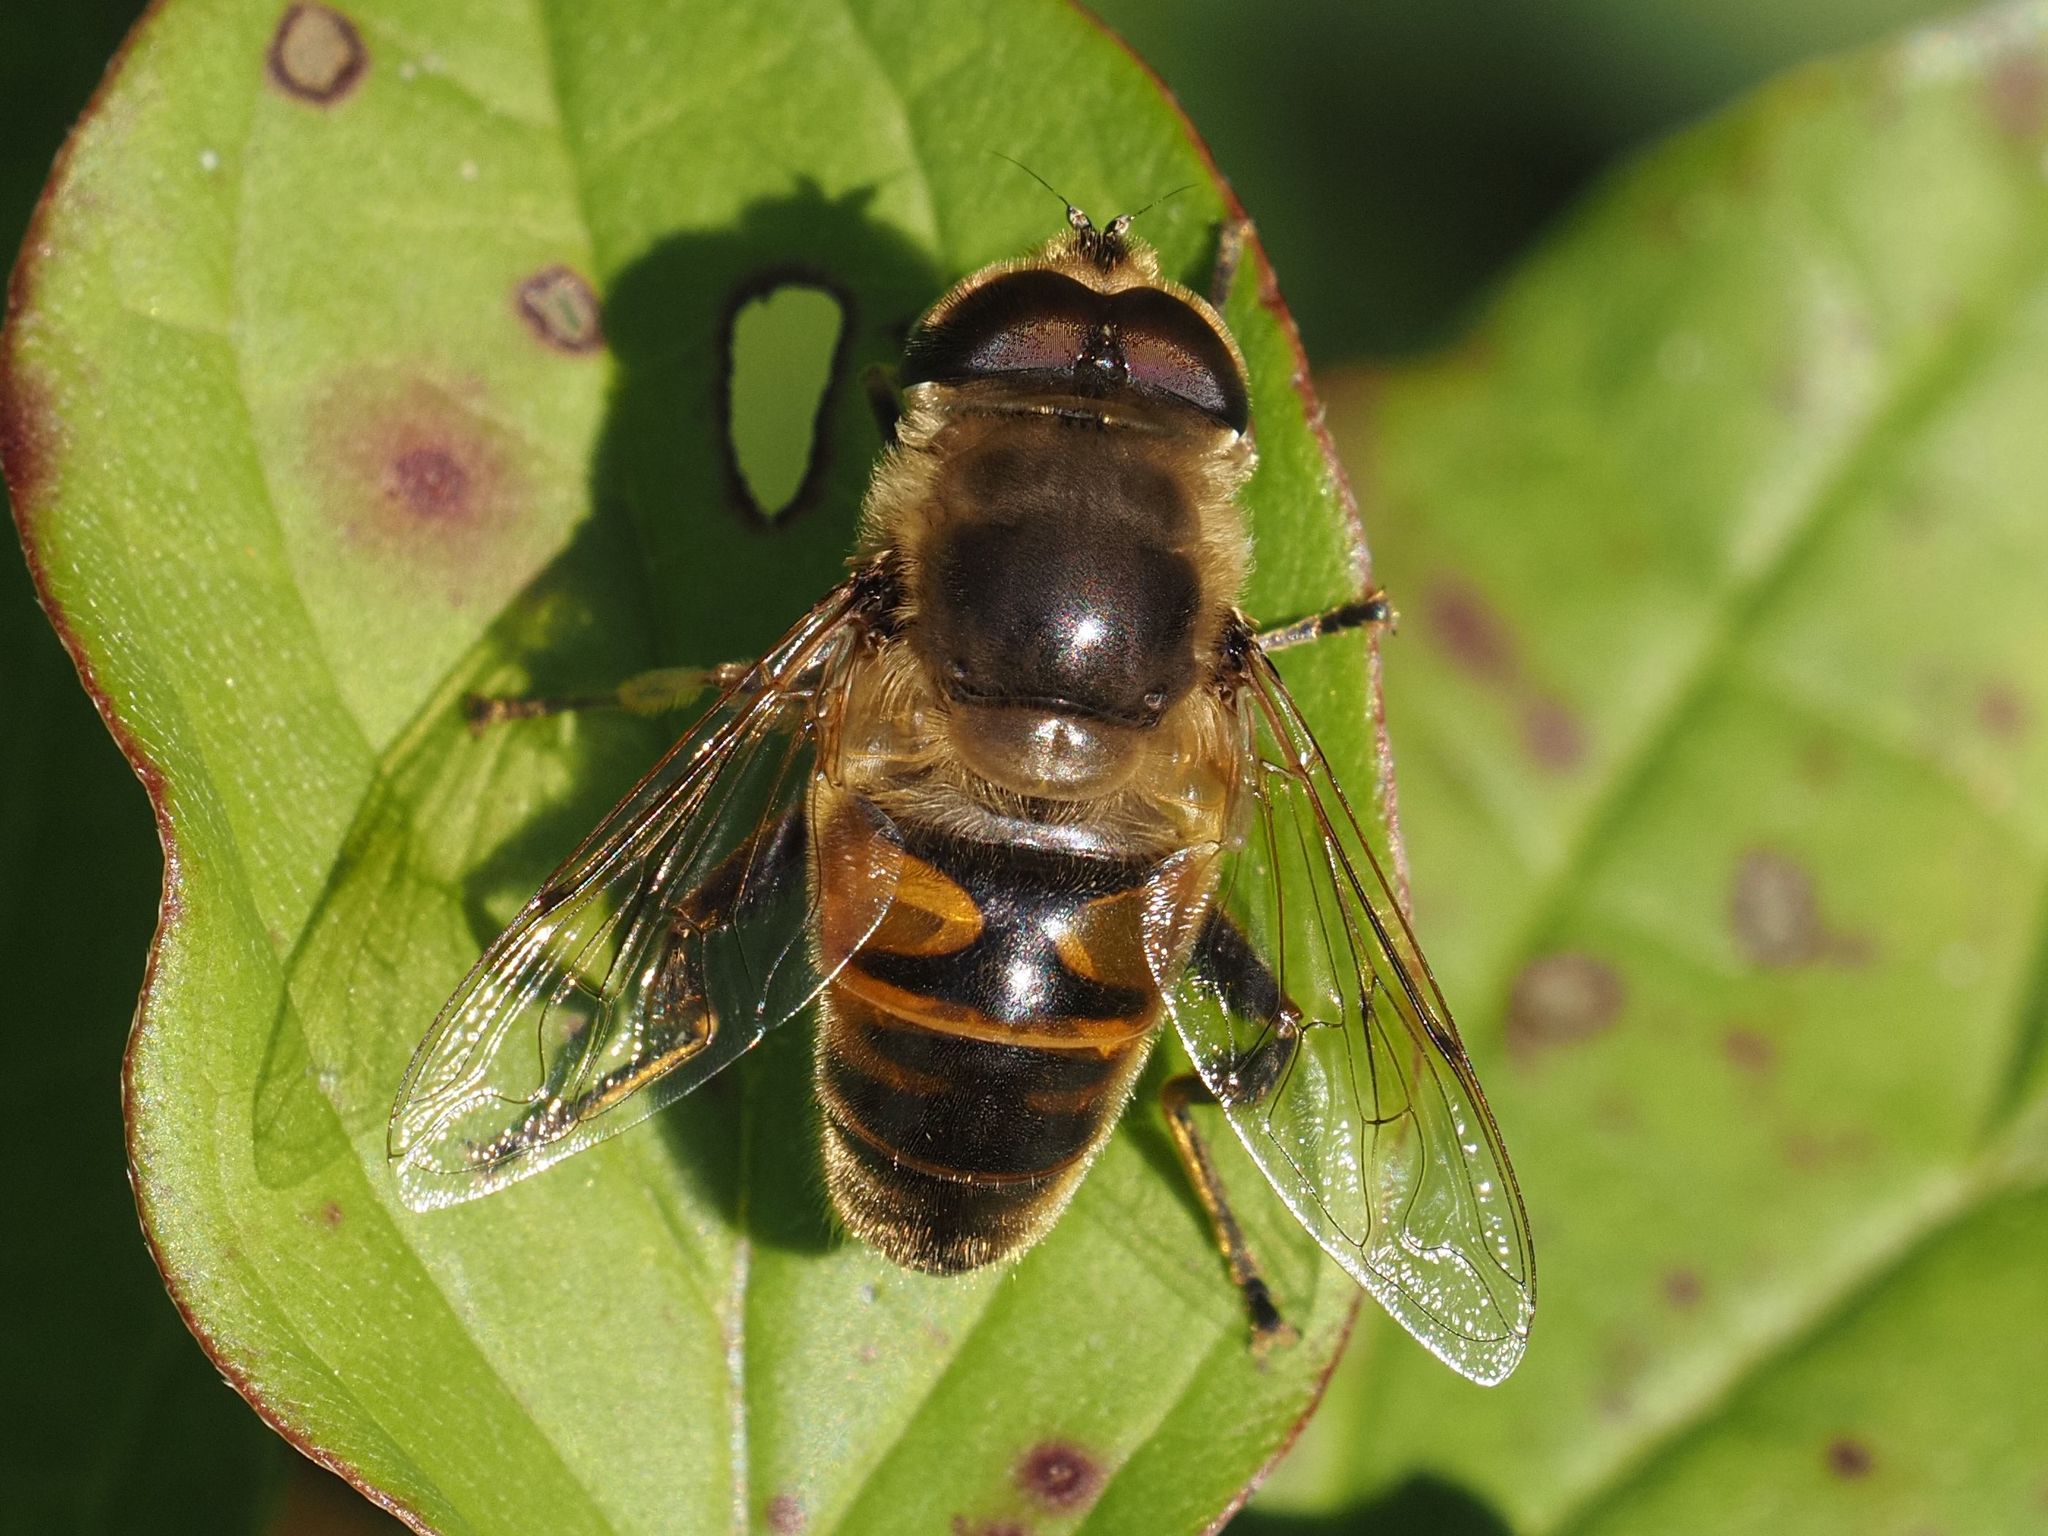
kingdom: Animalia
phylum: Arthropoda
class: Insecta
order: Diptera
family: Syrphidae
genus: Eristalis
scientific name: Eristalis tenax
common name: Drone fly
